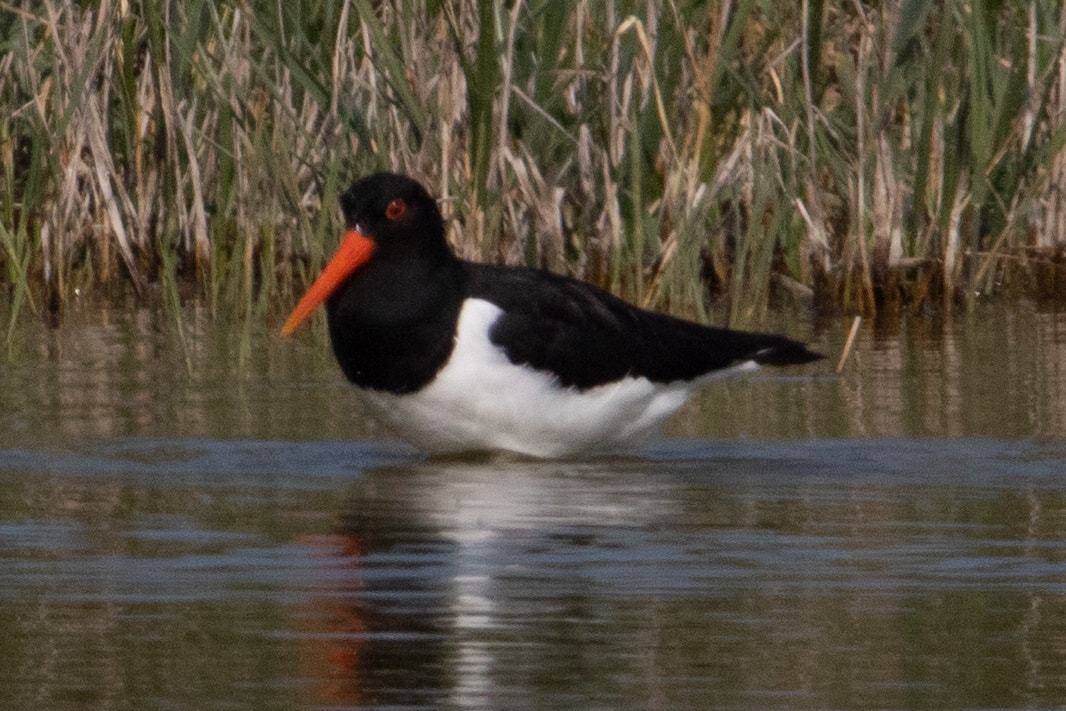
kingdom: Animalia
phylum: Chordata
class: Aves
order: Charadriiformes
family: Haematopodidae
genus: Haematopus
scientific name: Haematopus ostralegus
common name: Eurasian oystercatcher
